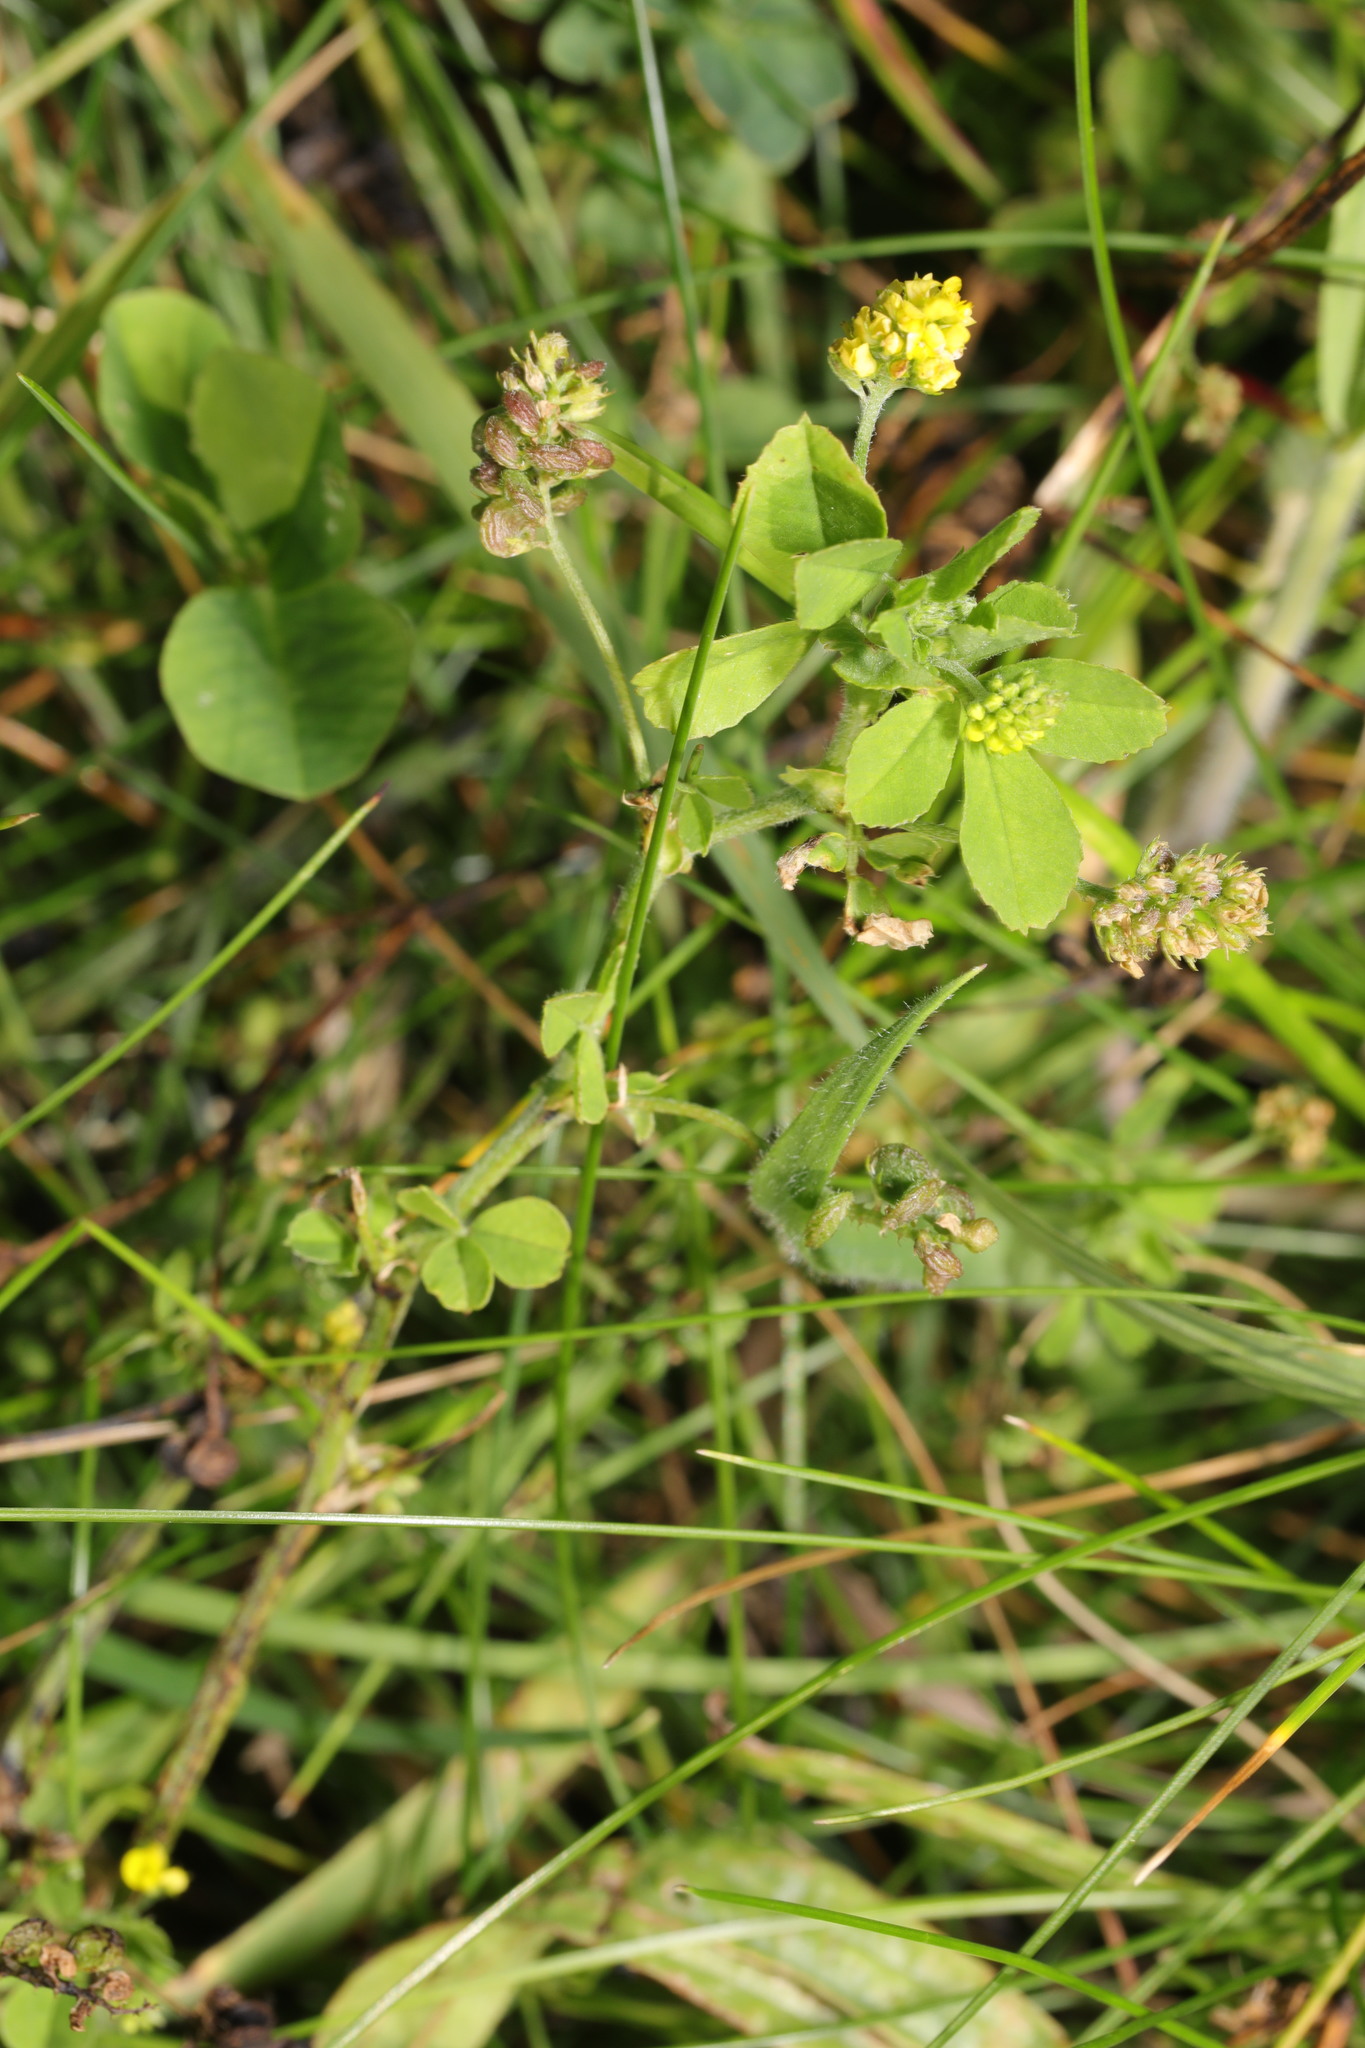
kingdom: Plantae
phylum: Tracheophyta
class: Magnoliopsida
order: Fabales
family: Fabaceae
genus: Medicago
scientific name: Medicago lupulina
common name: Black medick
